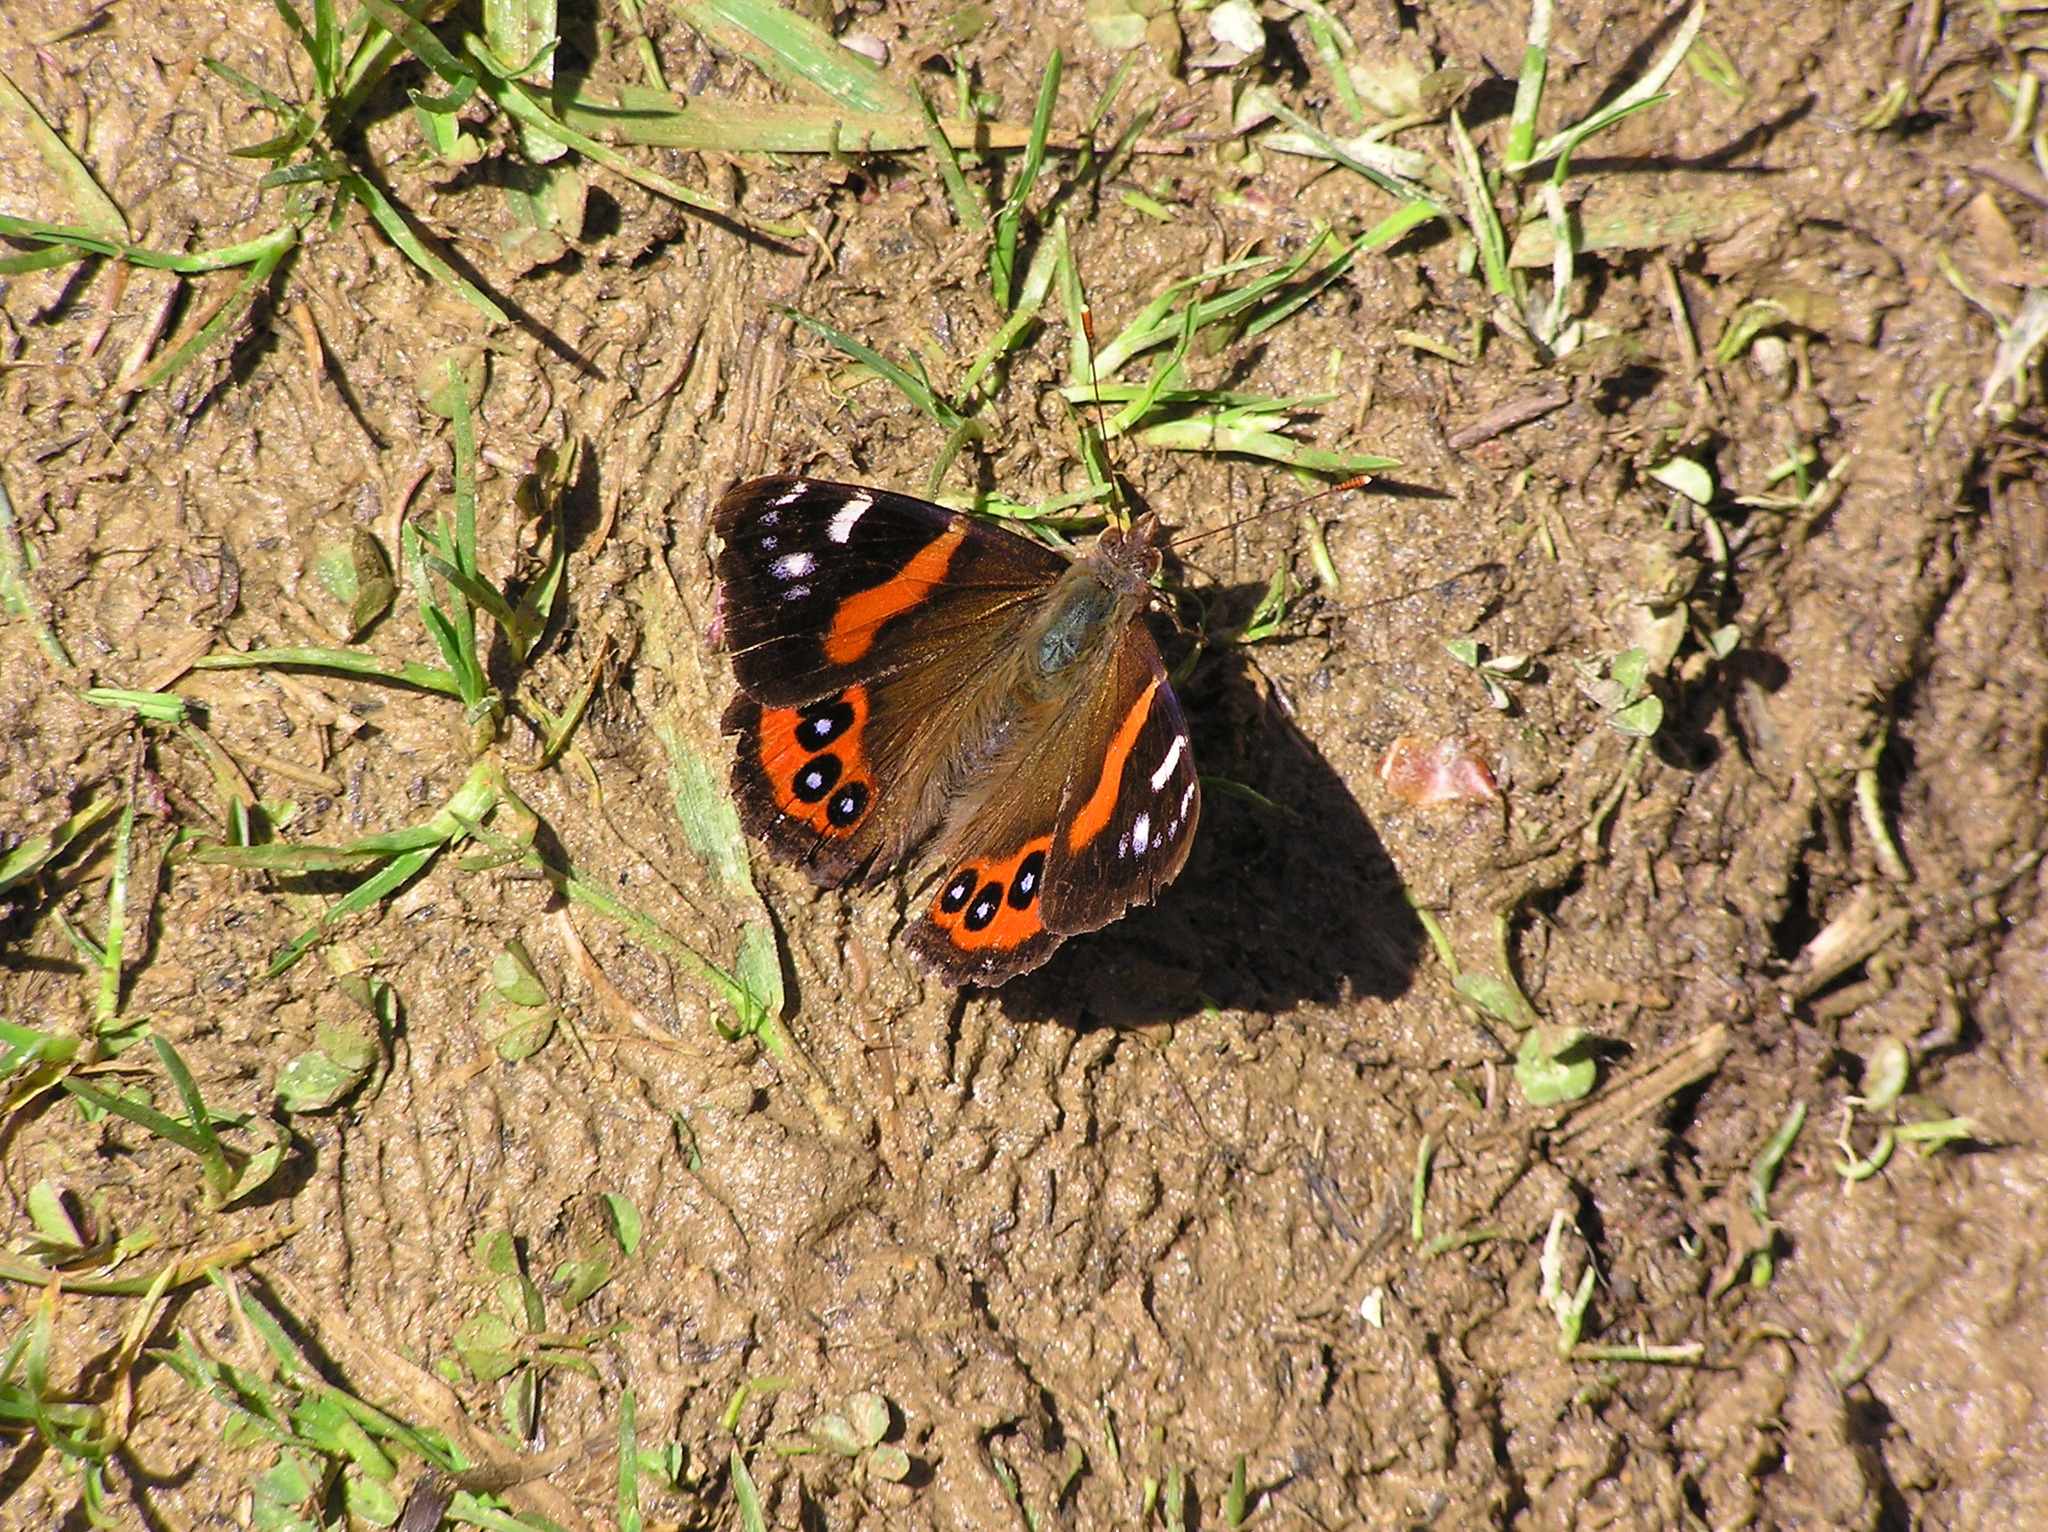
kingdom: Animalia
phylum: Arthropoda
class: Insecta
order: Lepidoptera
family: Nymphalidae
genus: Vanessa
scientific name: Vanessa gonerilla
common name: New zealand red admiral
